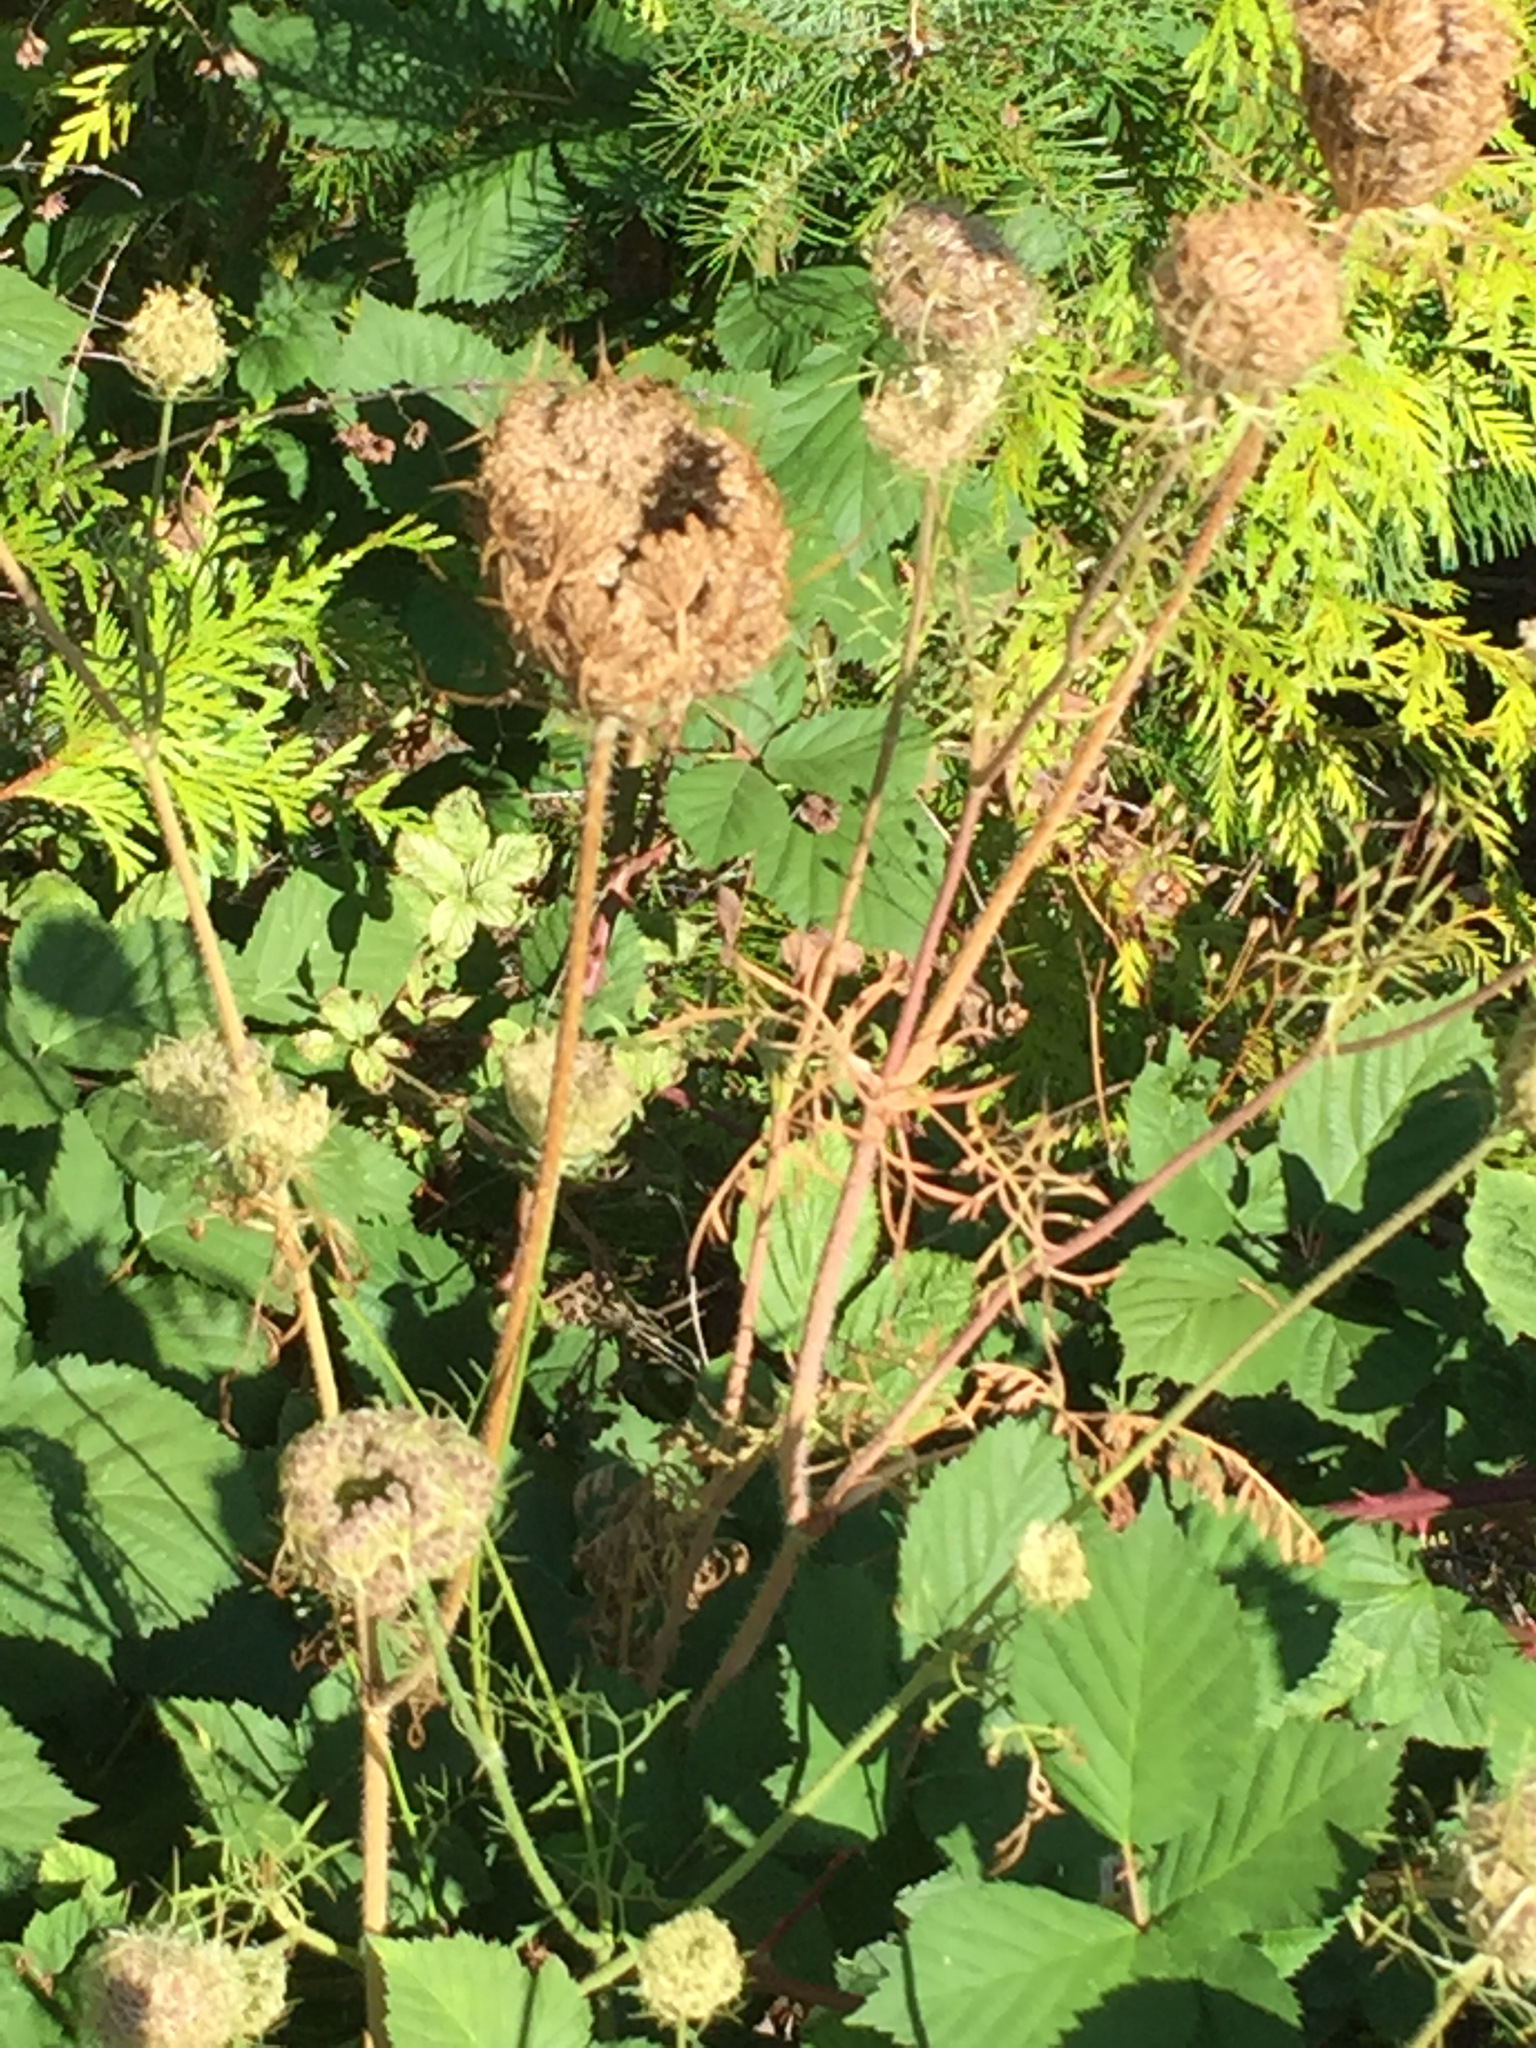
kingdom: Plantae
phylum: Tracheophyta
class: Magnoliopsida
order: Apiales
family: Apiaceae
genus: Daucus
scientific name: Daucus carota
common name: Wild carrot
